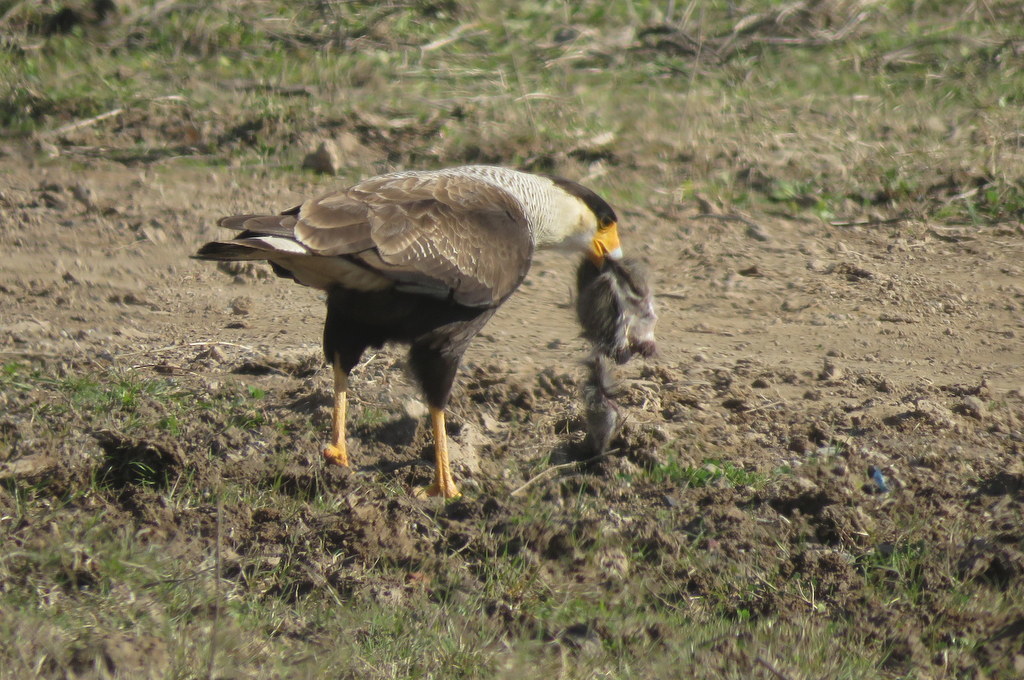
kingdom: Animalia
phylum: Chordata
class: Aves
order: Falconiformes
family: Falconidae
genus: Caracara
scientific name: Caracara plancus
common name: Southern caracara
